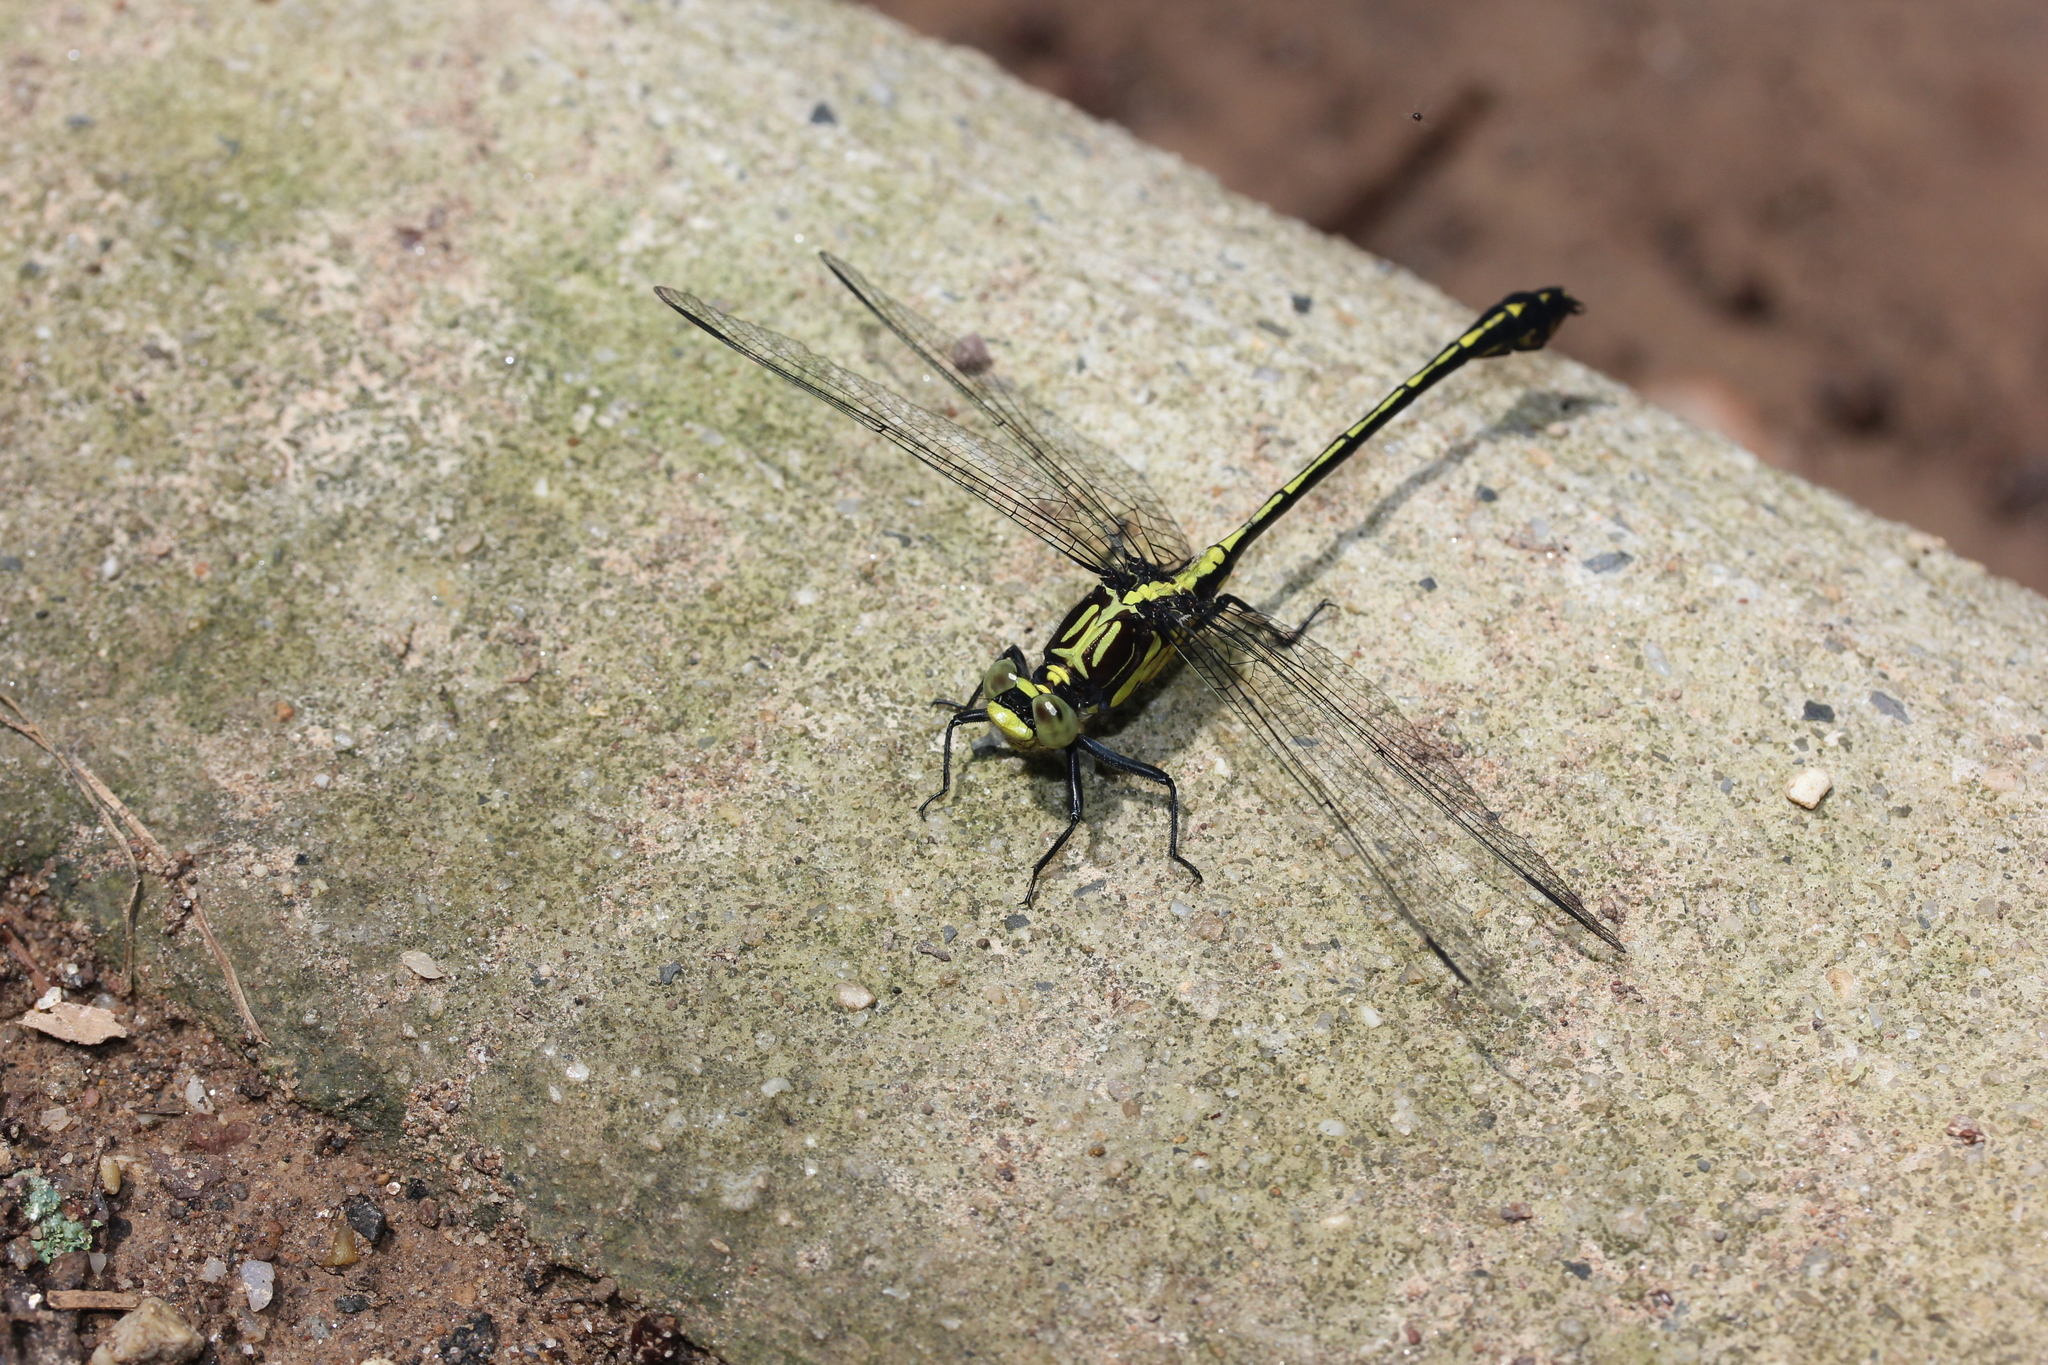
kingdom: Animalia
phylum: Arthropoda
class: Insecta
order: Odonata
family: Gomphidae
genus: Dromogomphus
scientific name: Dromogomphus spinosus
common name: Black-shouldered spinyleg
